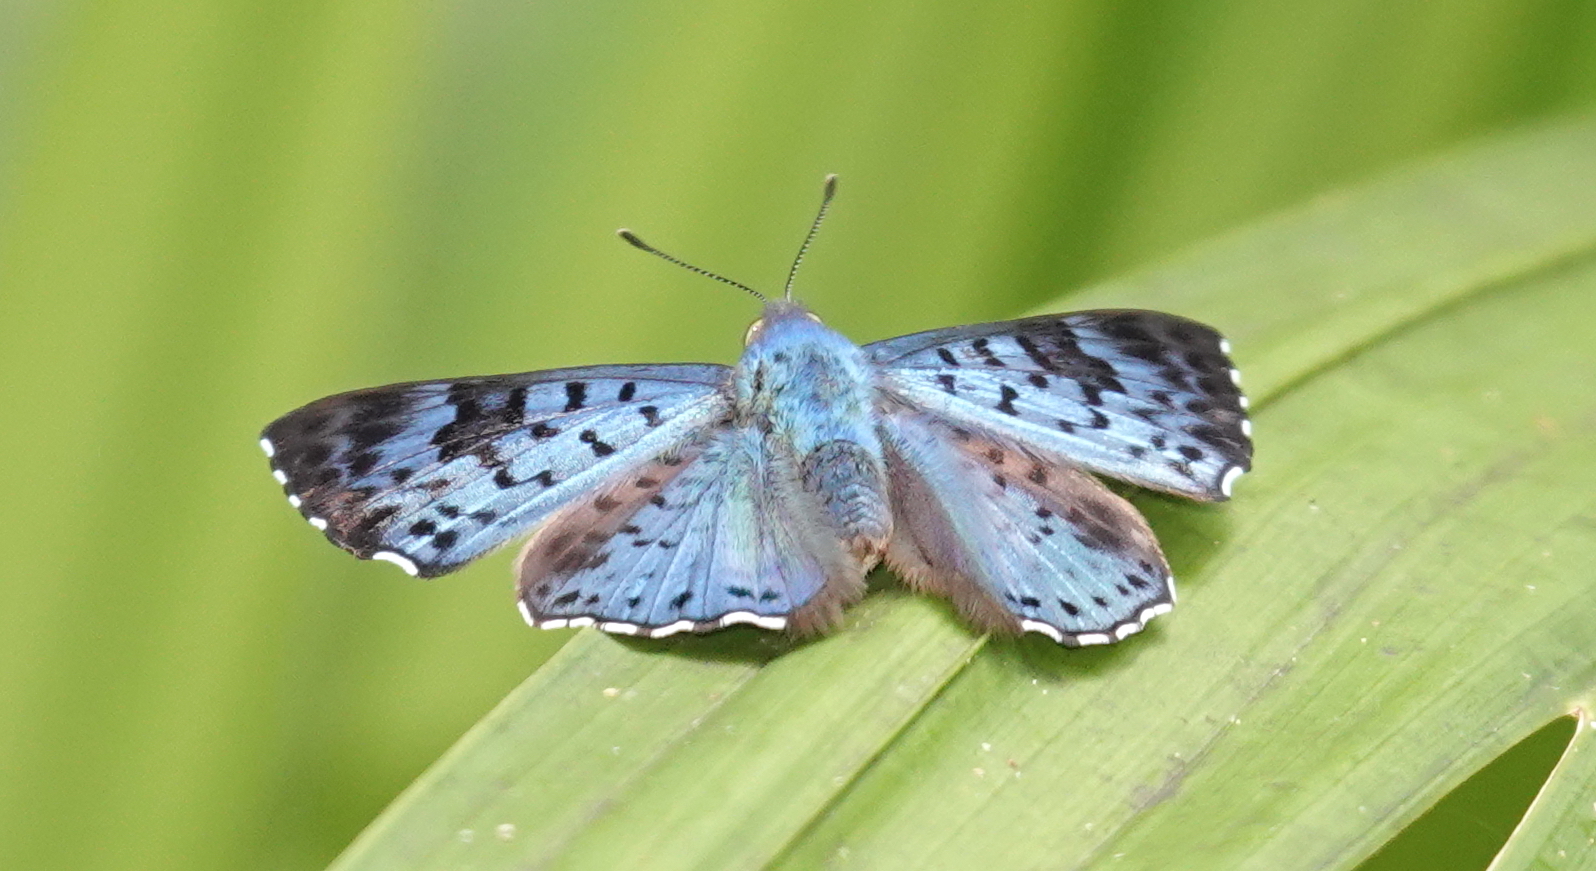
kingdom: Animalia
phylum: Arthropoda
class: Insecta
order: Lepidoptera
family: Riodinidae
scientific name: Riodinidae
